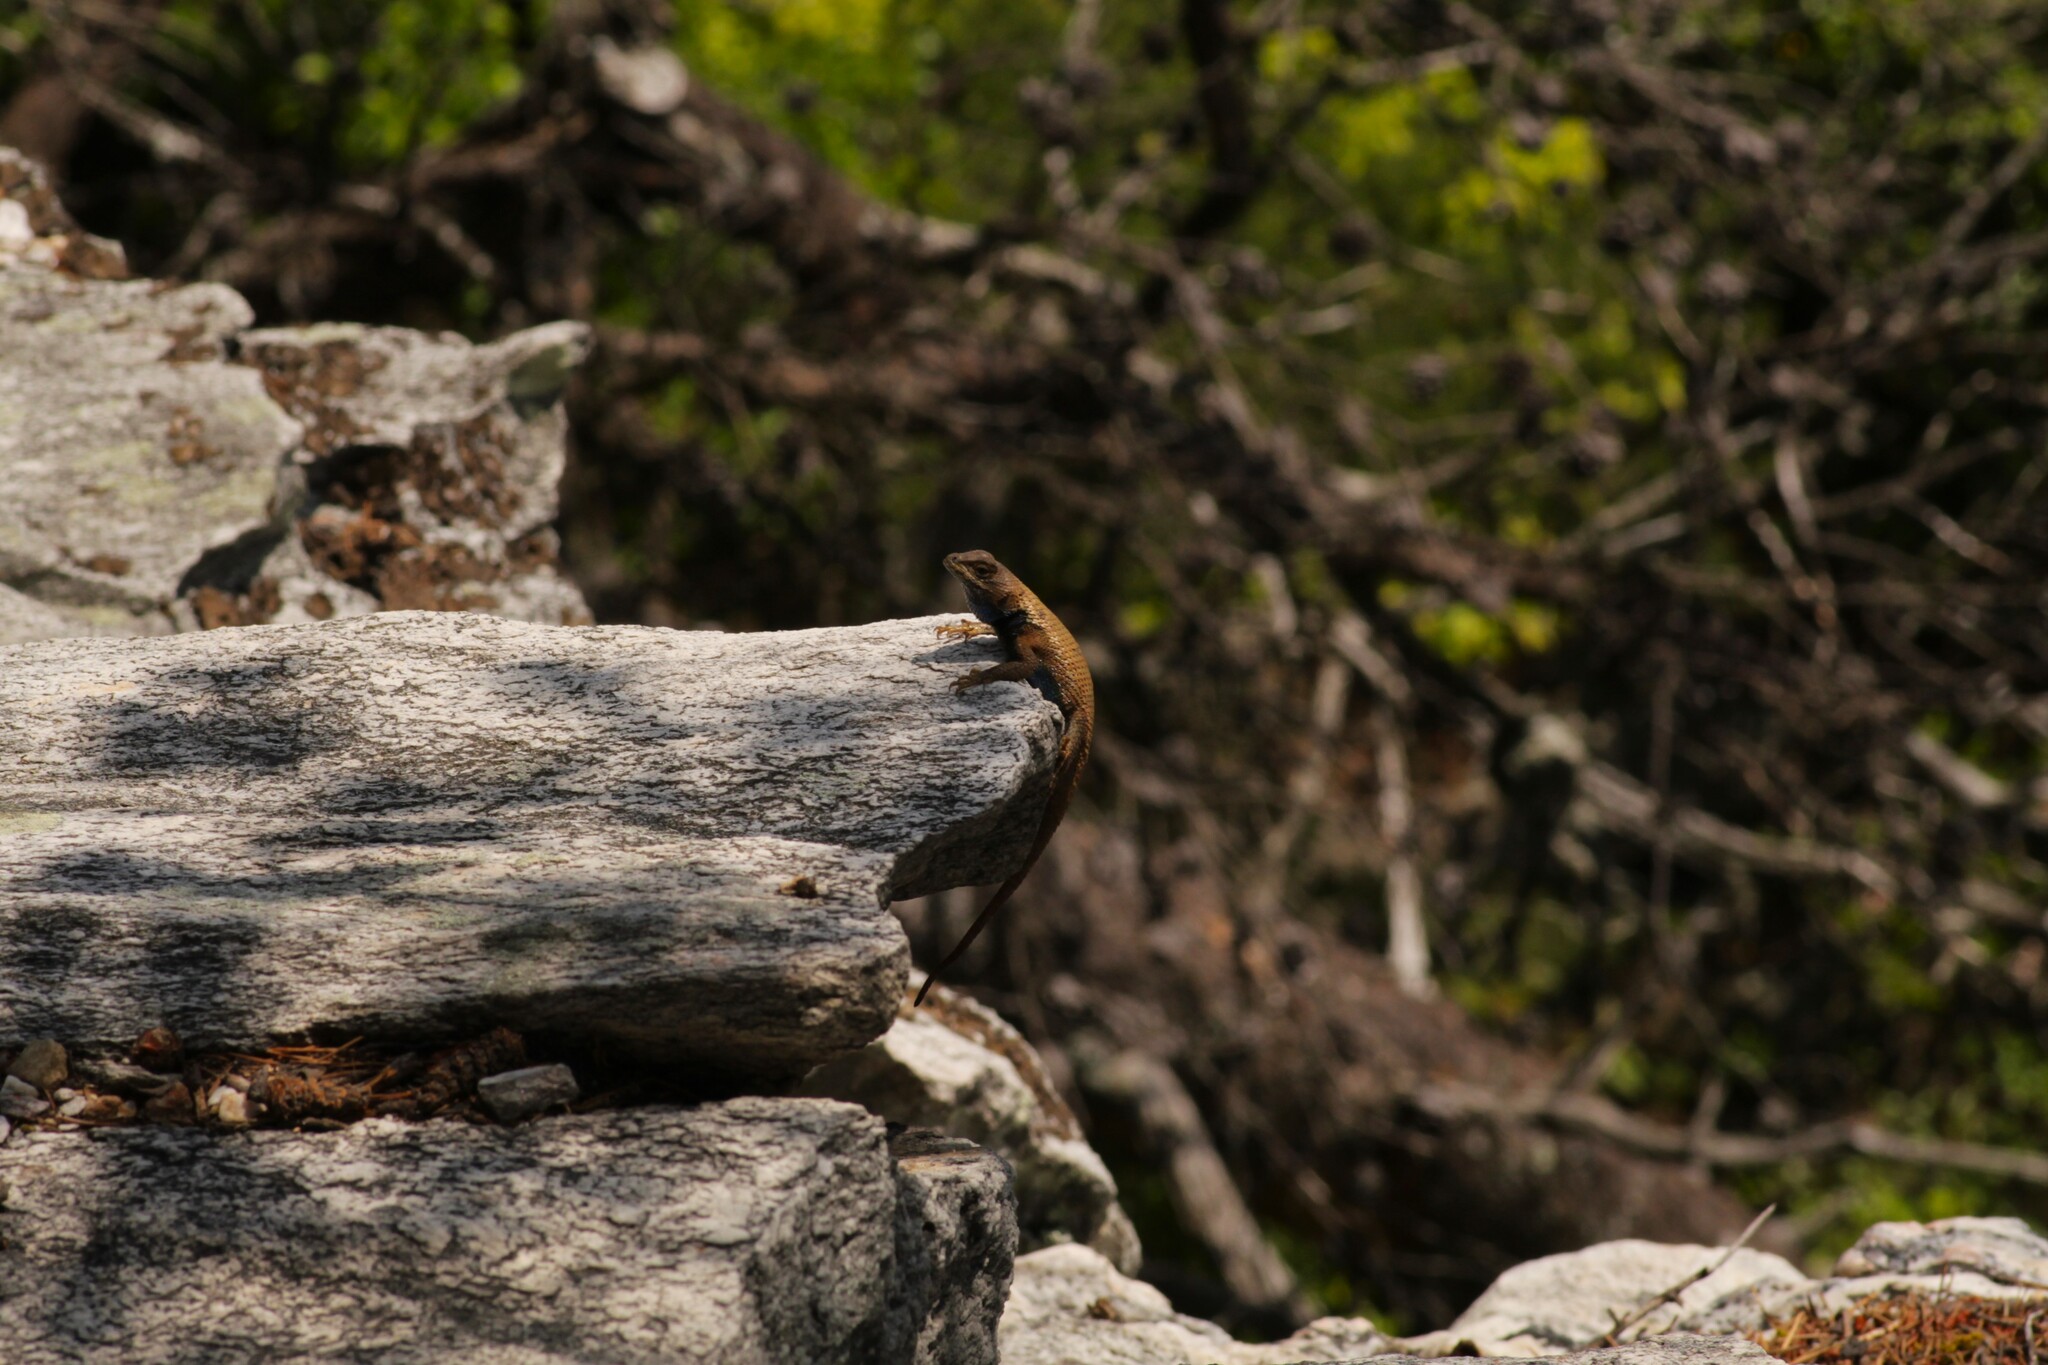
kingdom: Animalia
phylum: Chordata
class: Squamata
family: Phrynosomatidae
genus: Sceloporus
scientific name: Sceloporus undulatus
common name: Eastern fence lizard
